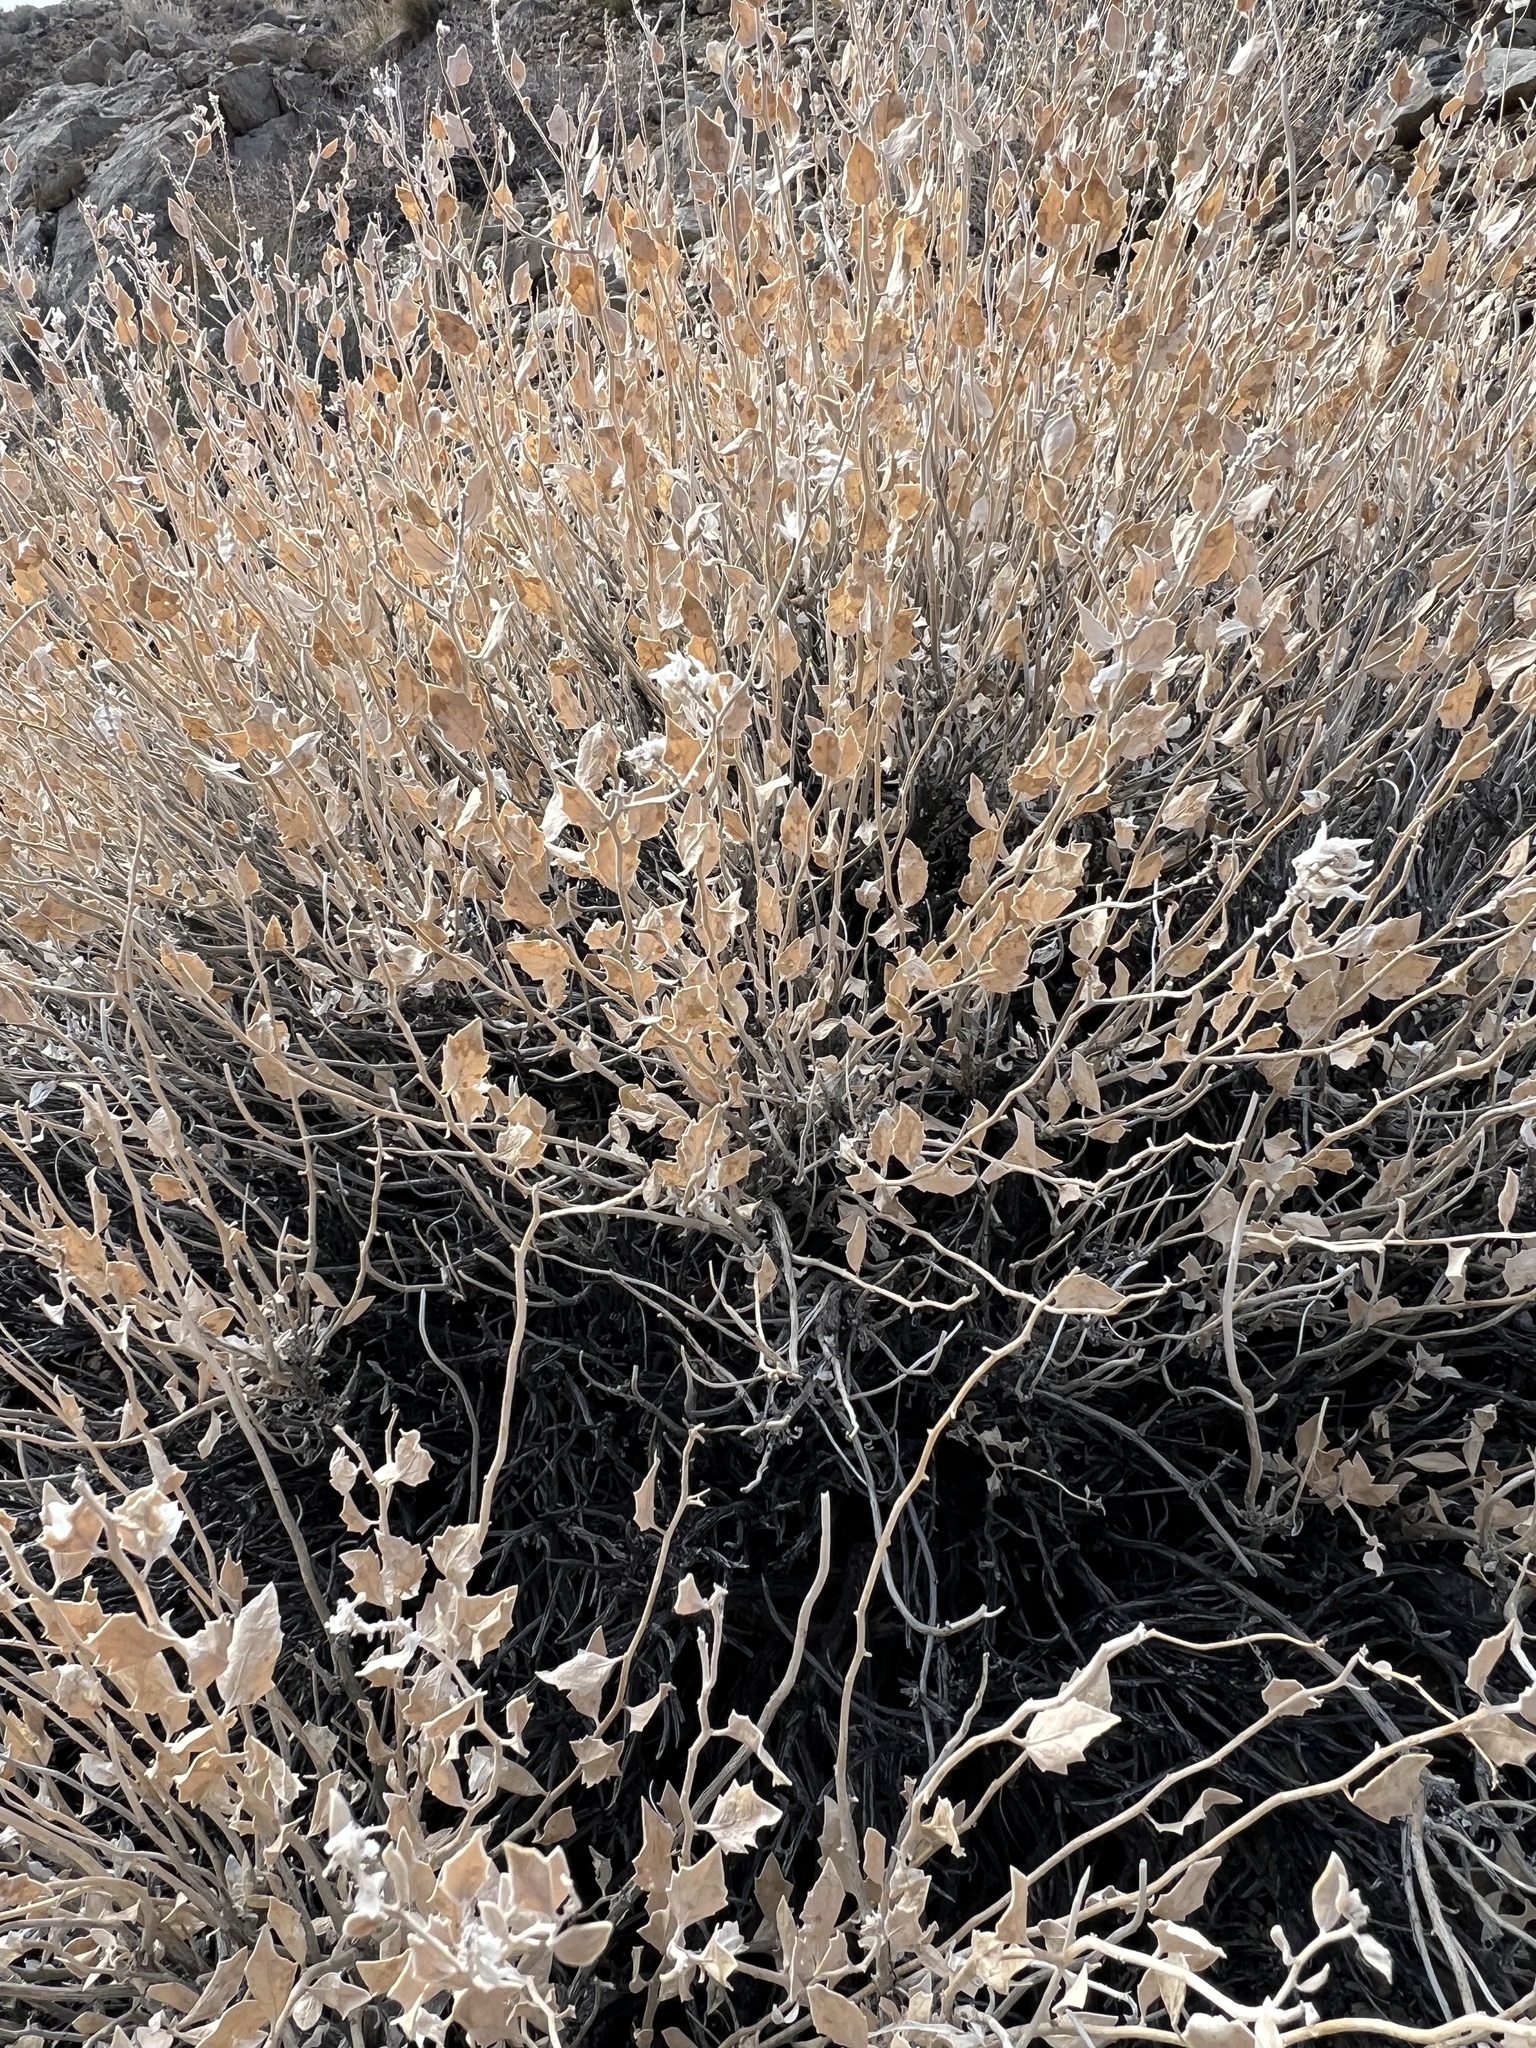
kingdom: Plantae
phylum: Tracheophyta
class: Magnoliopsida
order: Cornales
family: Loasaceae
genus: Petalonyx
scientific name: Petalonyx nitidus
